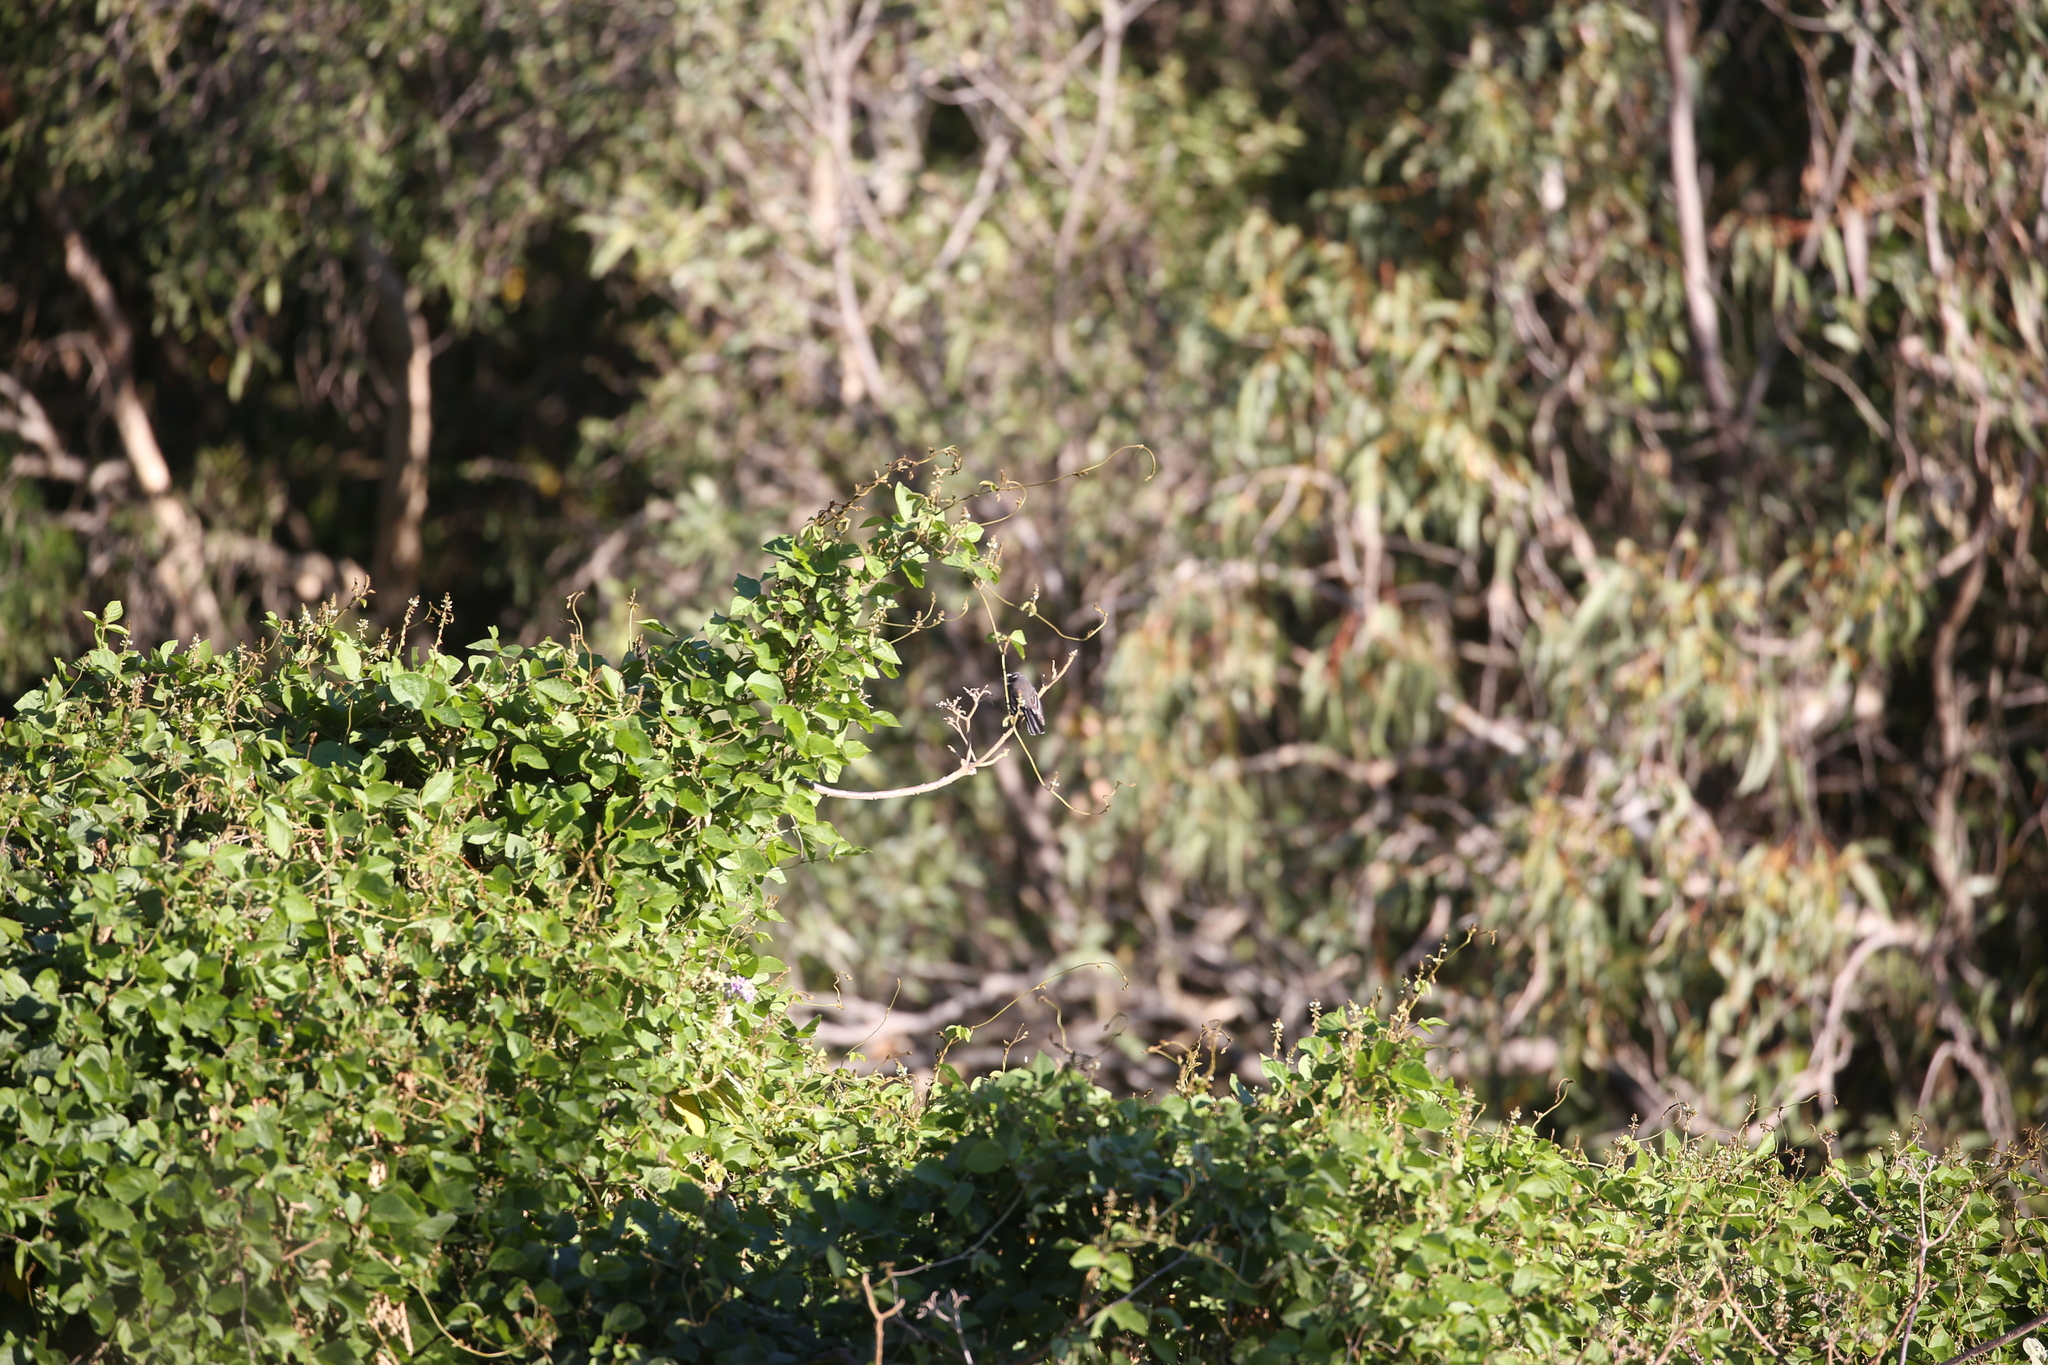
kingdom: Animalia
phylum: Chordata
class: Aves
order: Passeriformes
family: Rhipiduridae
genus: Rhipidura
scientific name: Rhipidura albiscapa
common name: Grey fantail
